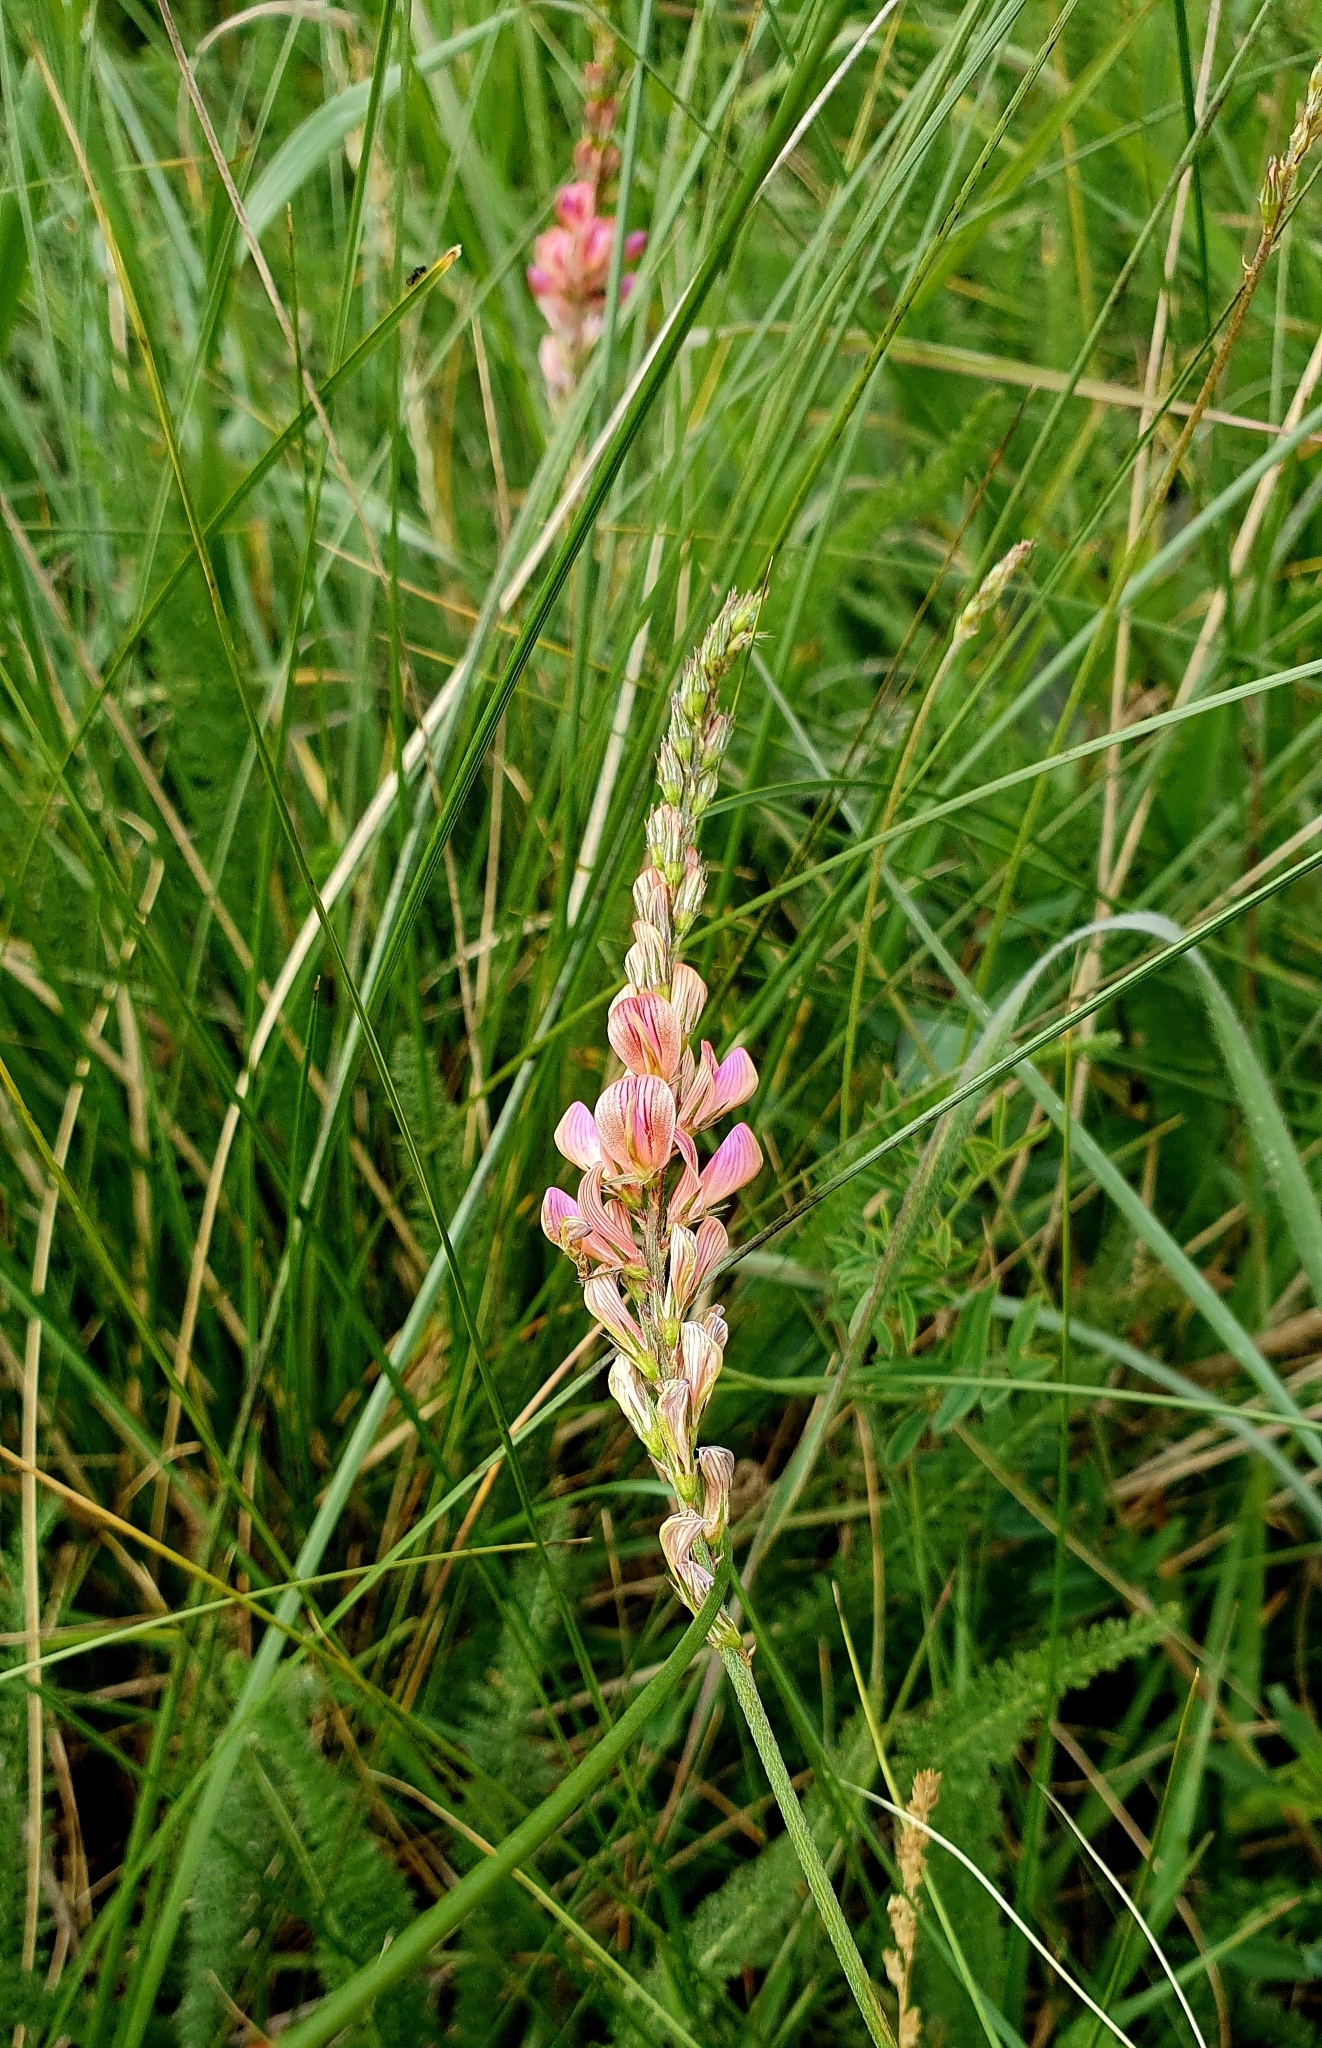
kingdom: Plantae
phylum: Tracheophyta
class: Magnoliopsida
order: Fabales
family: Fabaceae
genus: Onobrychis
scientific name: Onobrychis arenaria
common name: Sand esparcet
